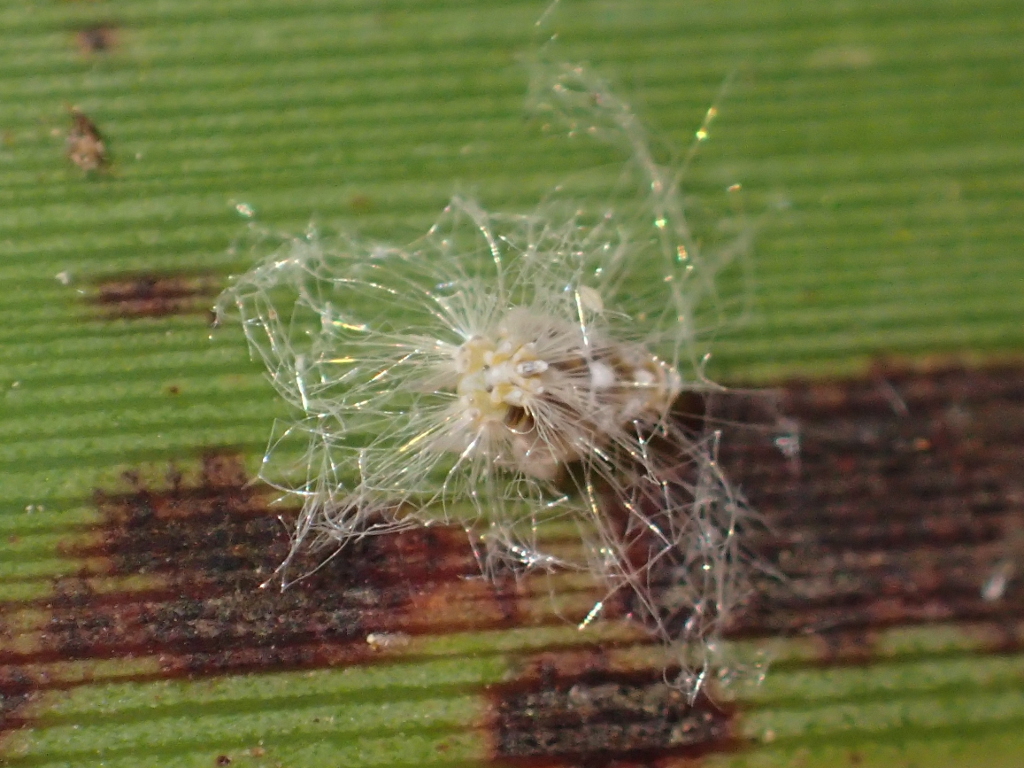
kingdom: Animalia
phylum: Arthropoda
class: Insecta
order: Hemiptera
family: Ricaniidae
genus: Scolypopa
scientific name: Scolypopa australis
